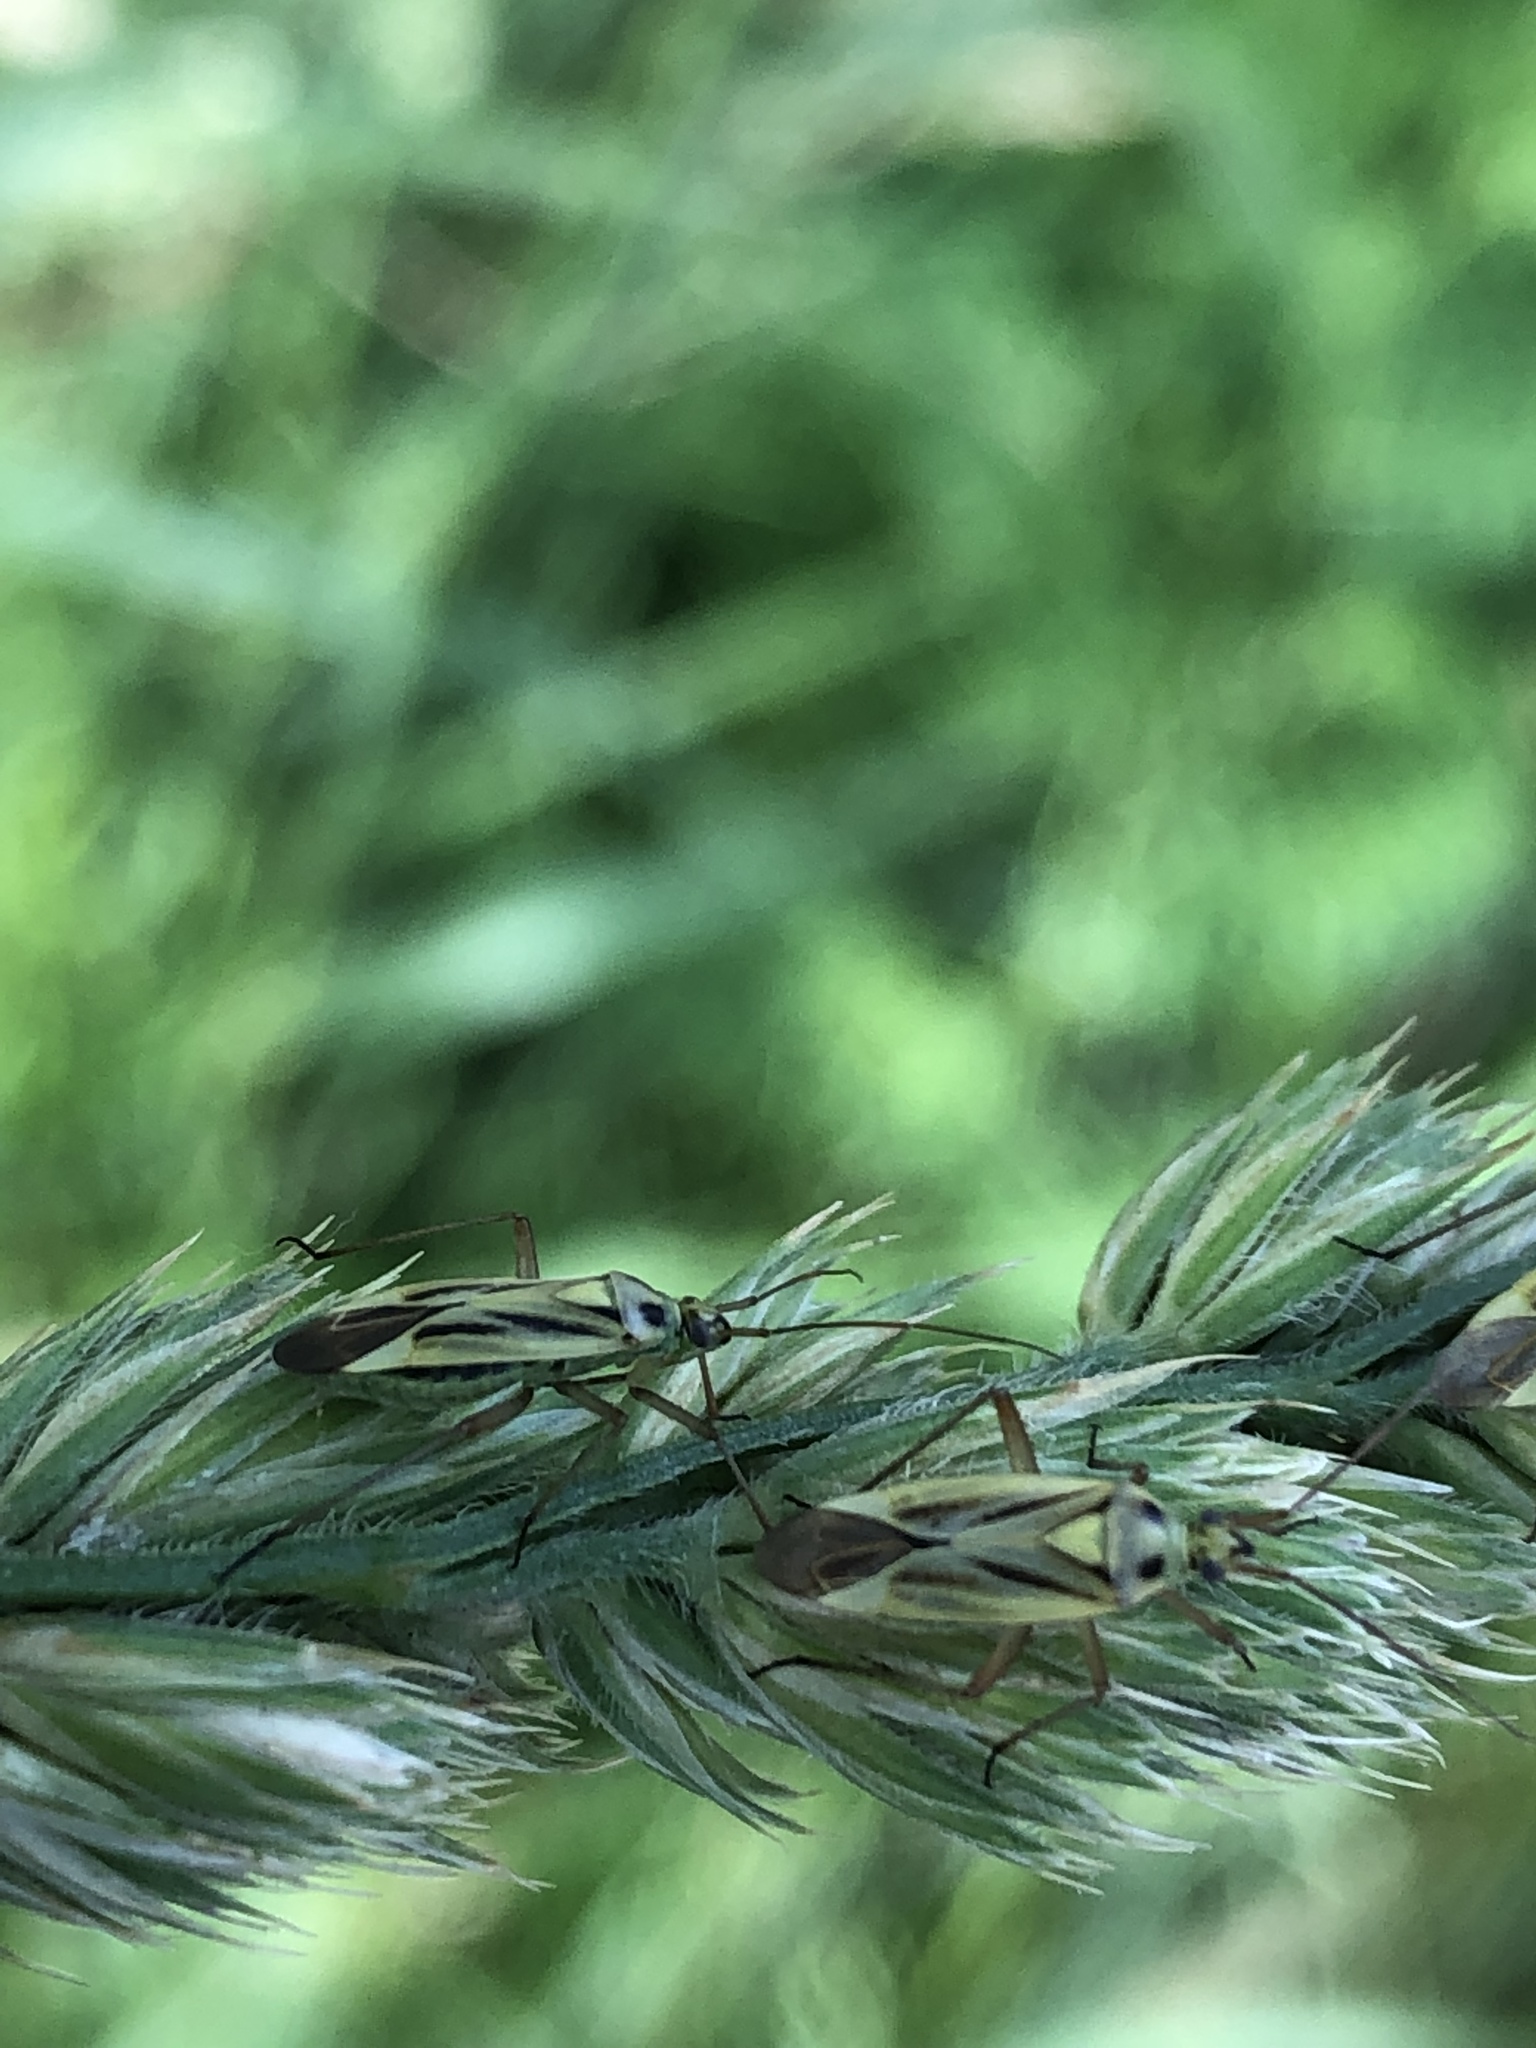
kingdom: Animalia
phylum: Arthropoda
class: Insecta
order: Hemiptera
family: Miridae
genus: Stenotus
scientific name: Stenotus binotatus
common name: Plant bug
